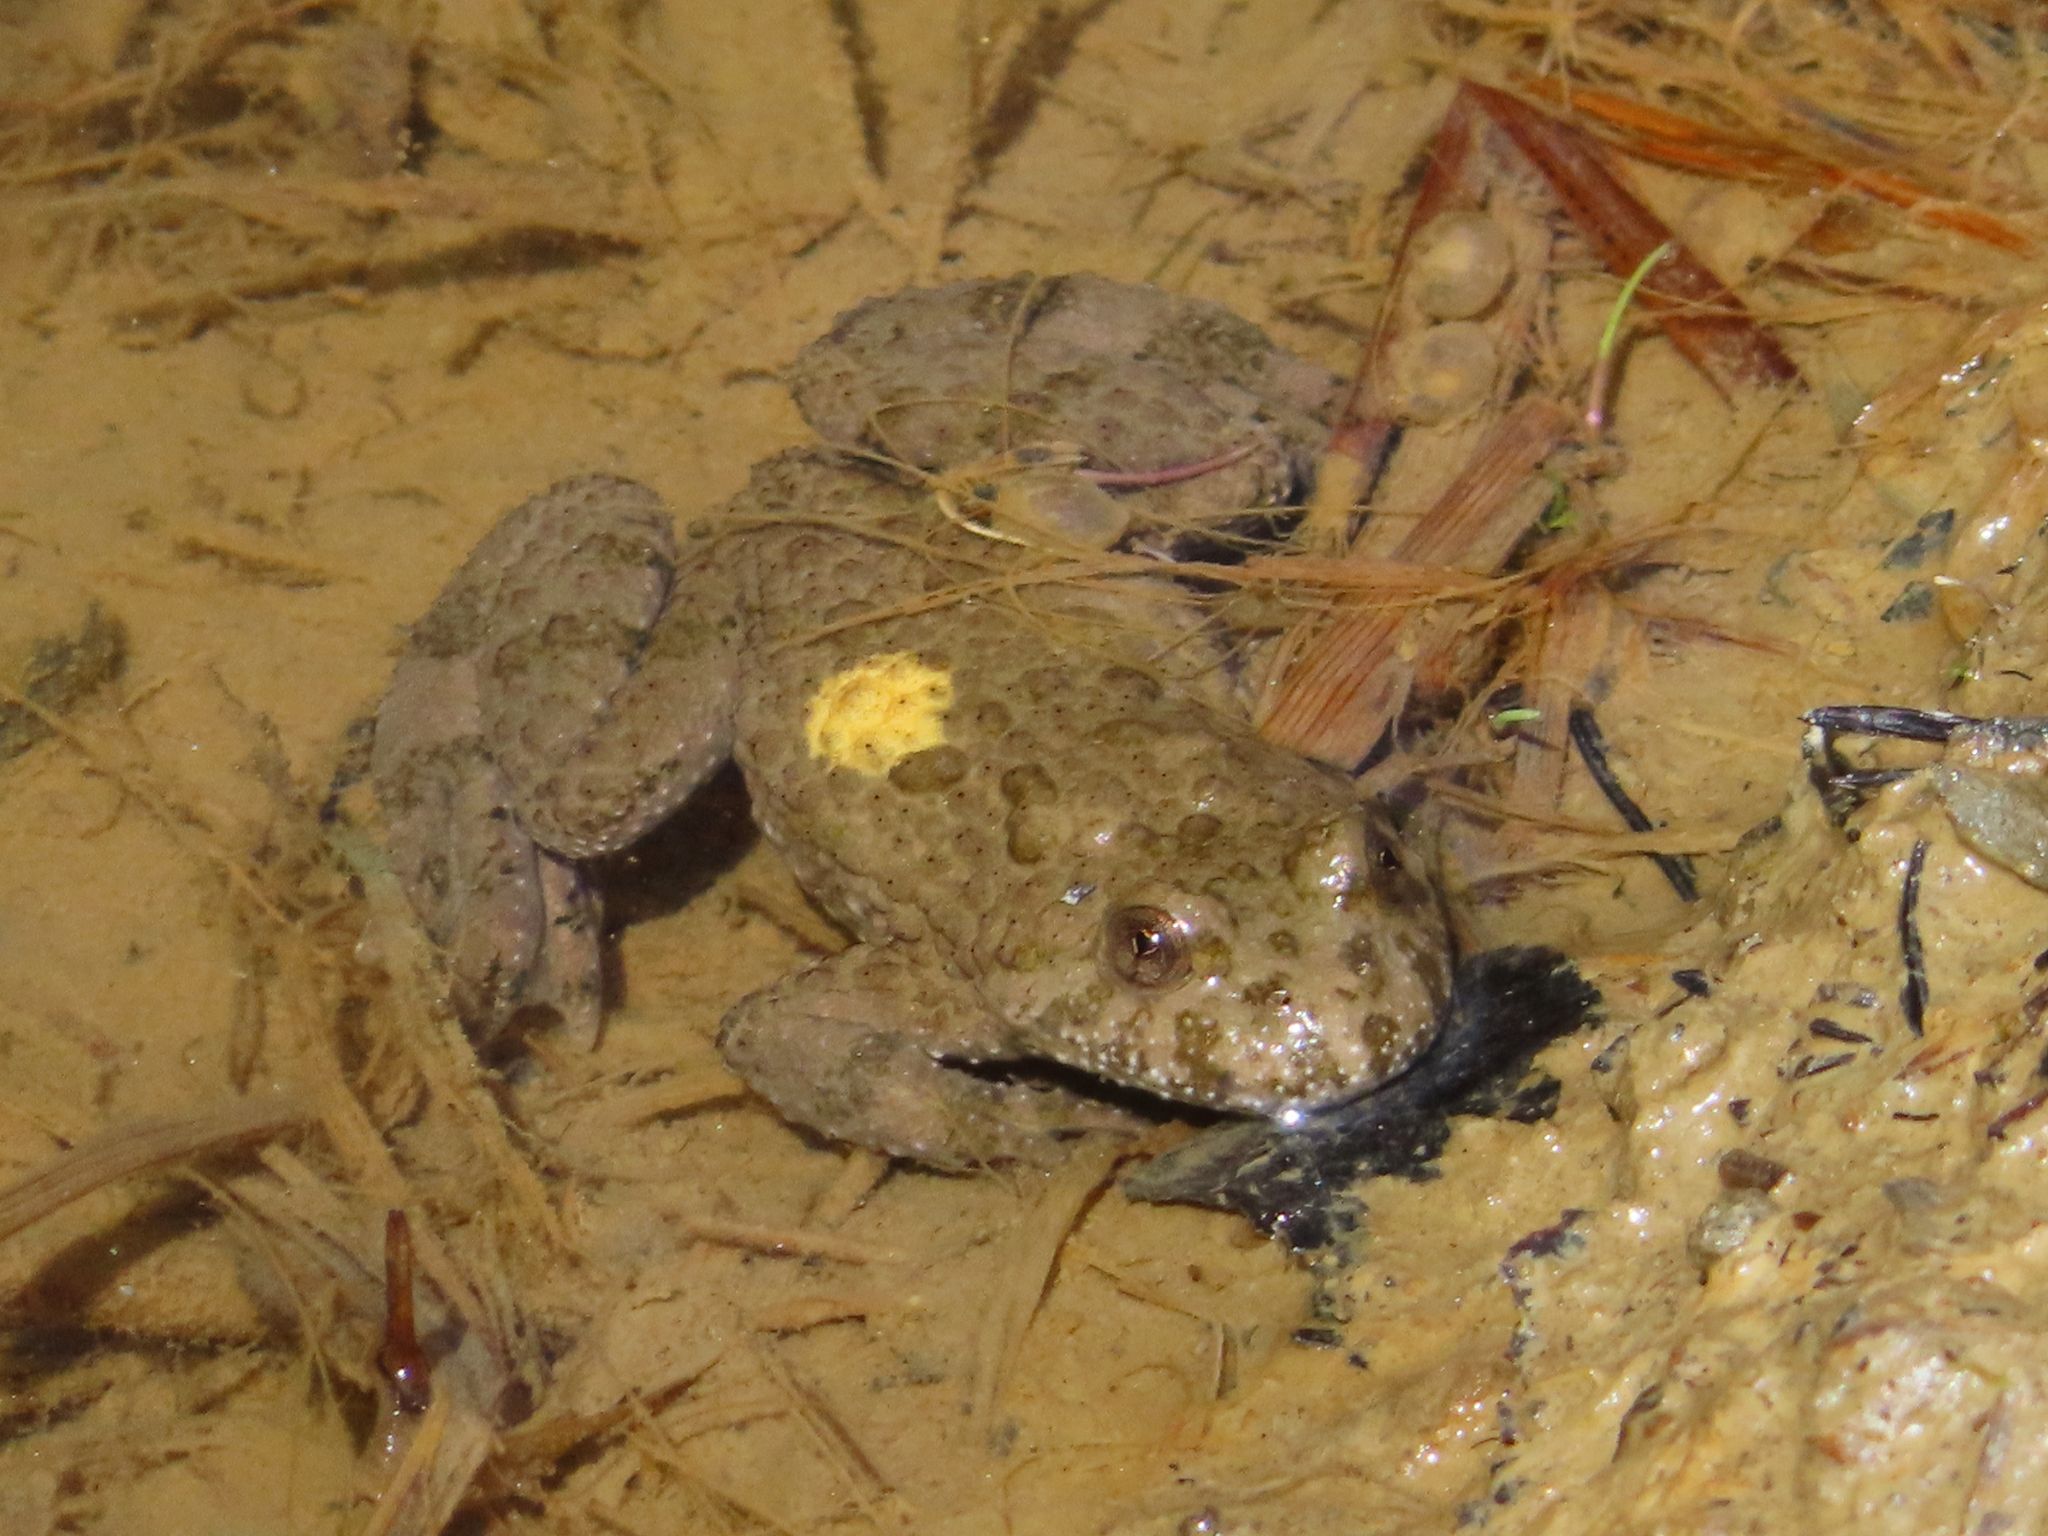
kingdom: Animalia
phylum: Chordata
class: Amphibia
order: Anura
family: Bombinatoridae
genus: Bombina
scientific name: Bombina variegata
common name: Yellow-bellied toad
